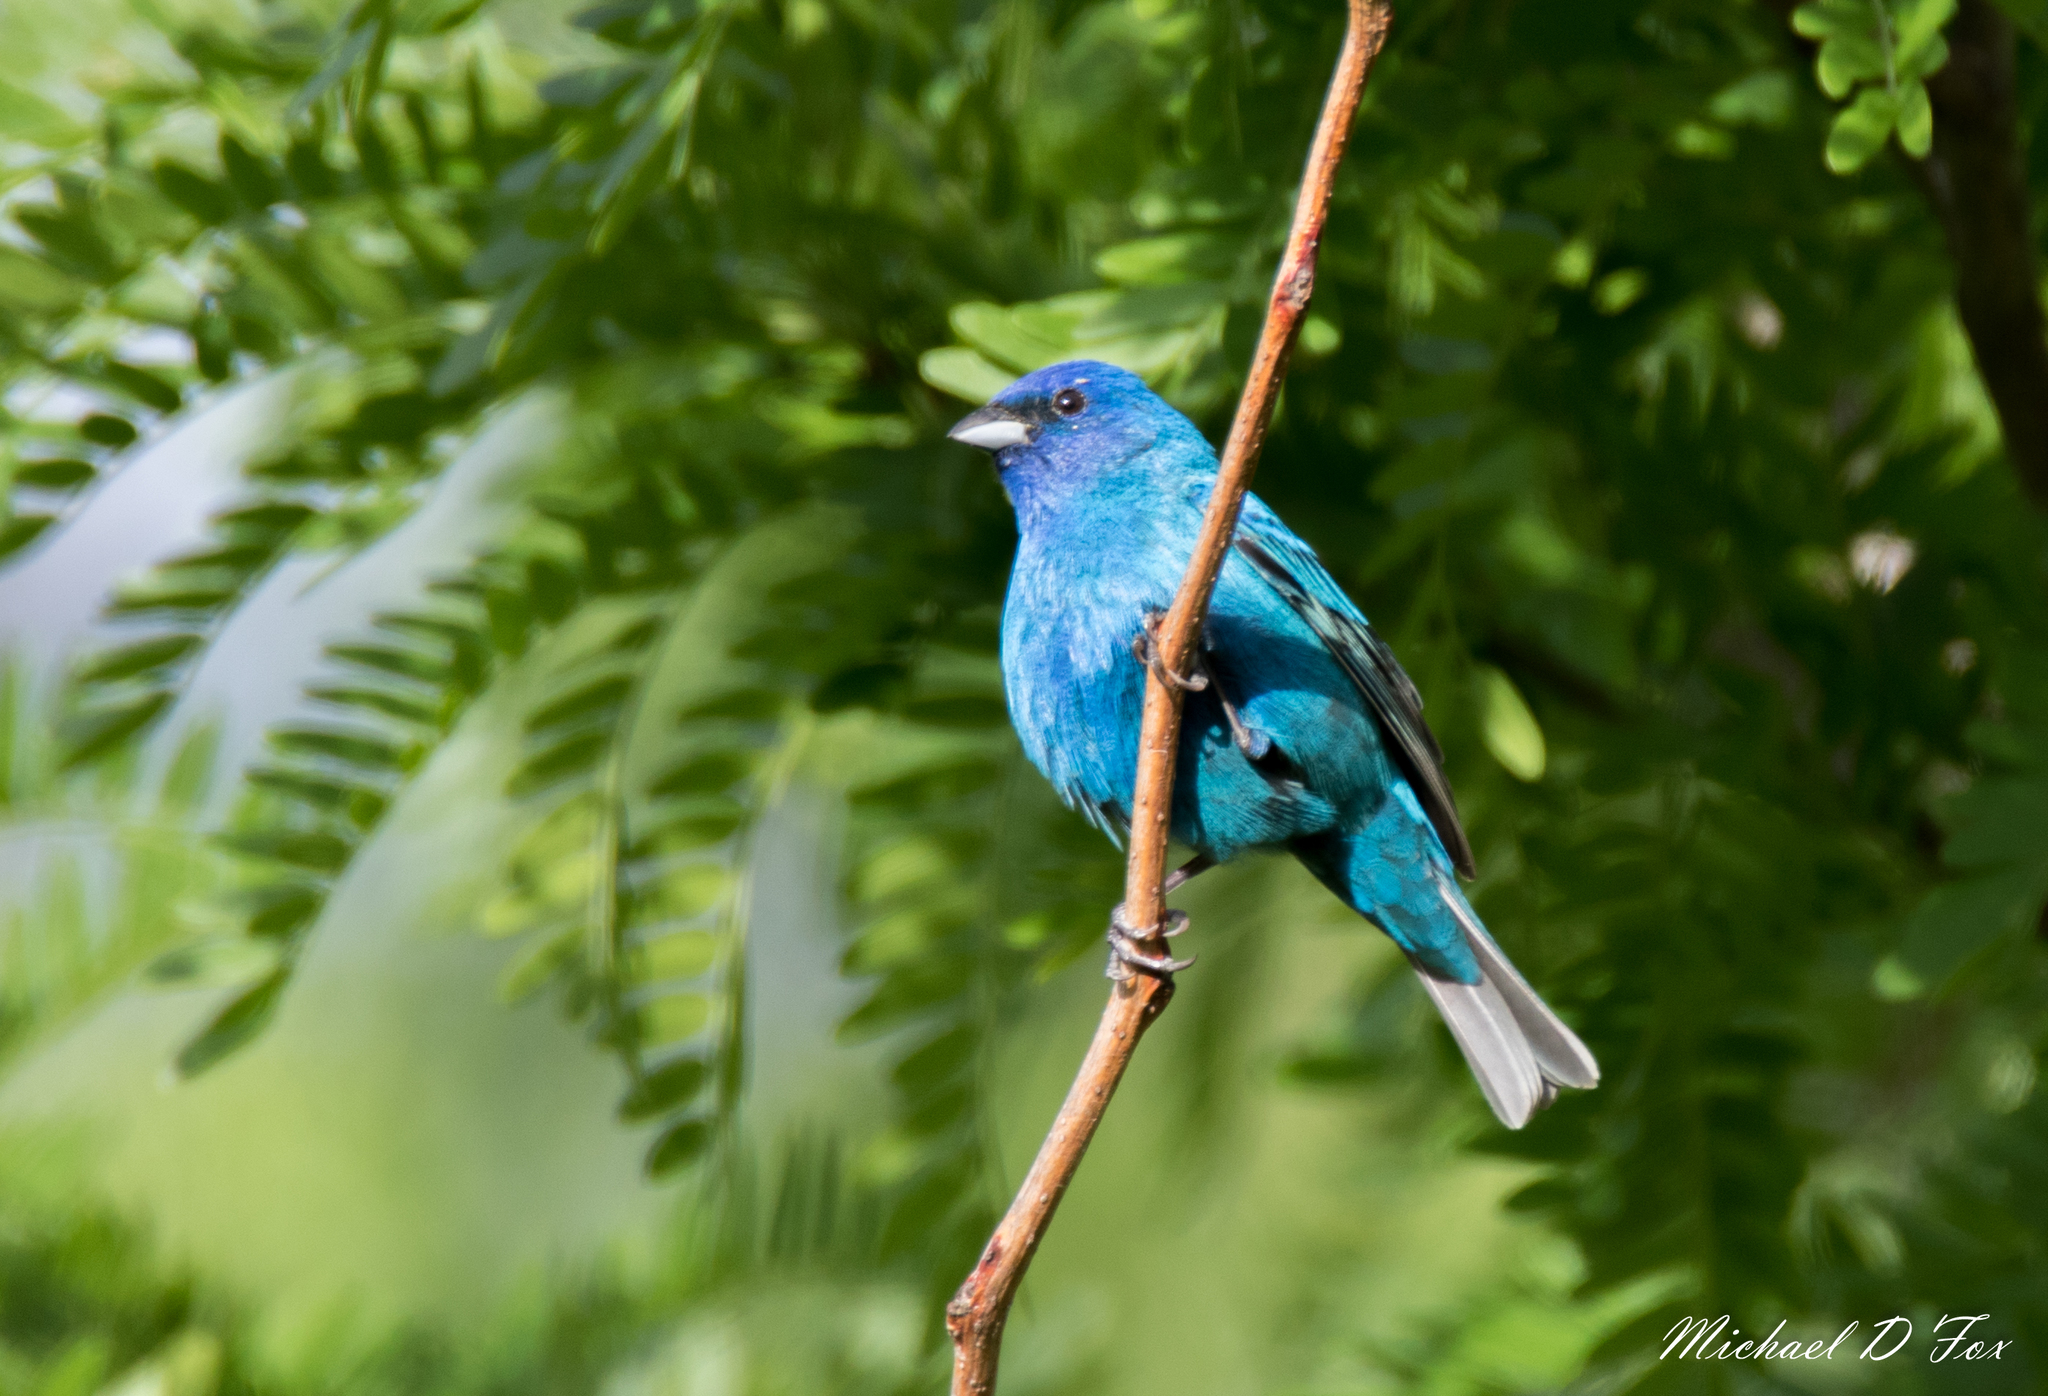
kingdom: Animalia
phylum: Chordata
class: Aves
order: Passeriformes
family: Cardinalidae
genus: Passerina
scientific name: Passerina cyanea
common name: Indigo bunting
